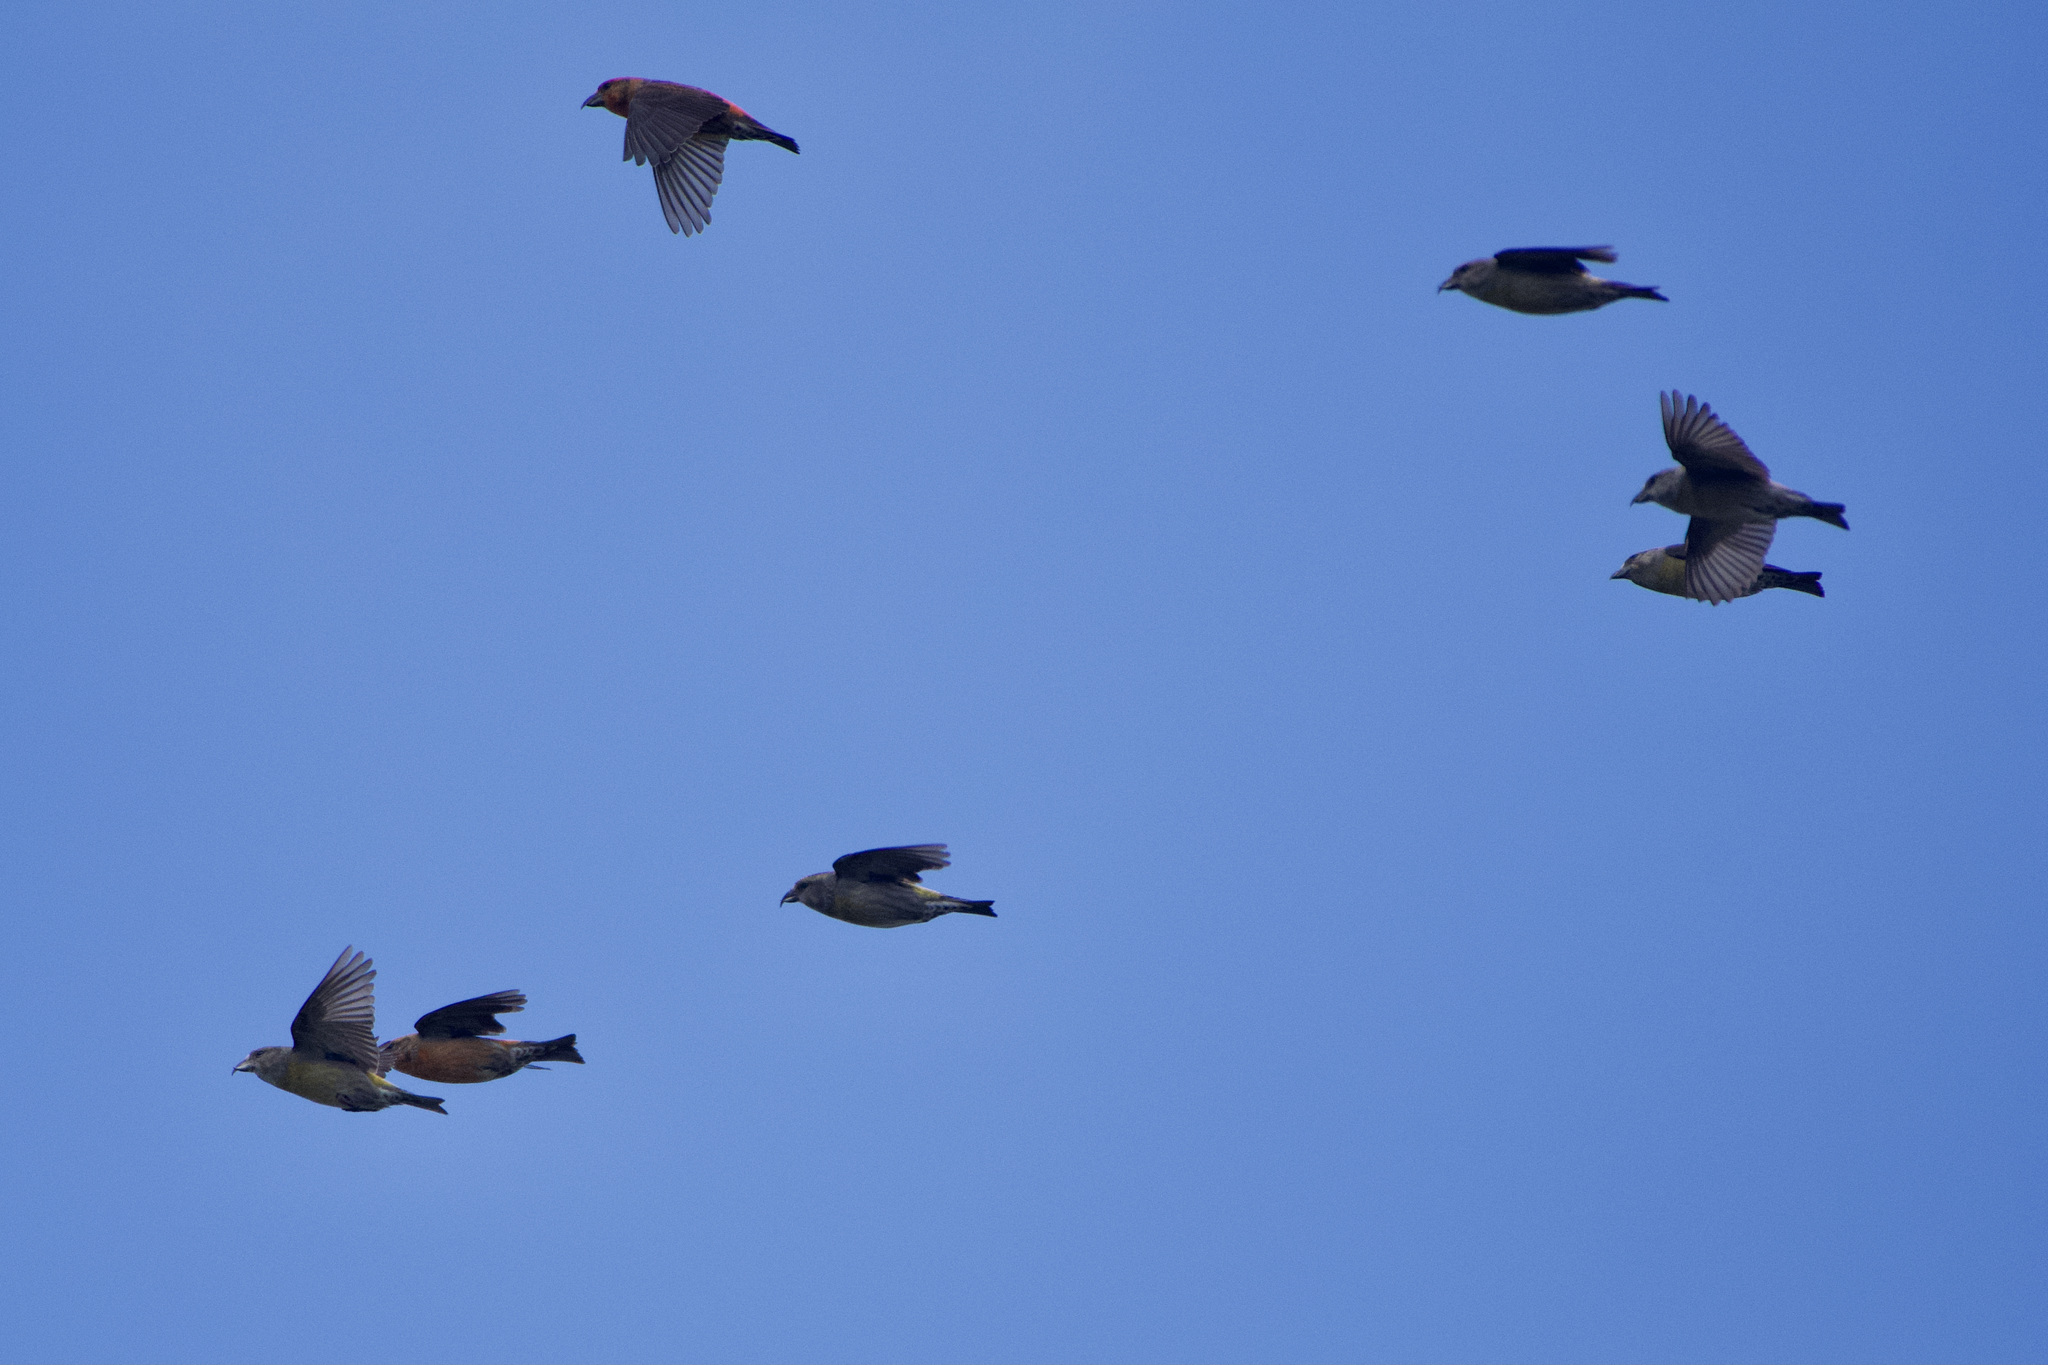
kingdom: Animalia
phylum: Chordata
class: Aves
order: Passeriformes
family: Fringillidae
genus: Loxia
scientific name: Loxia curvirostra
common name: Red crossbill
